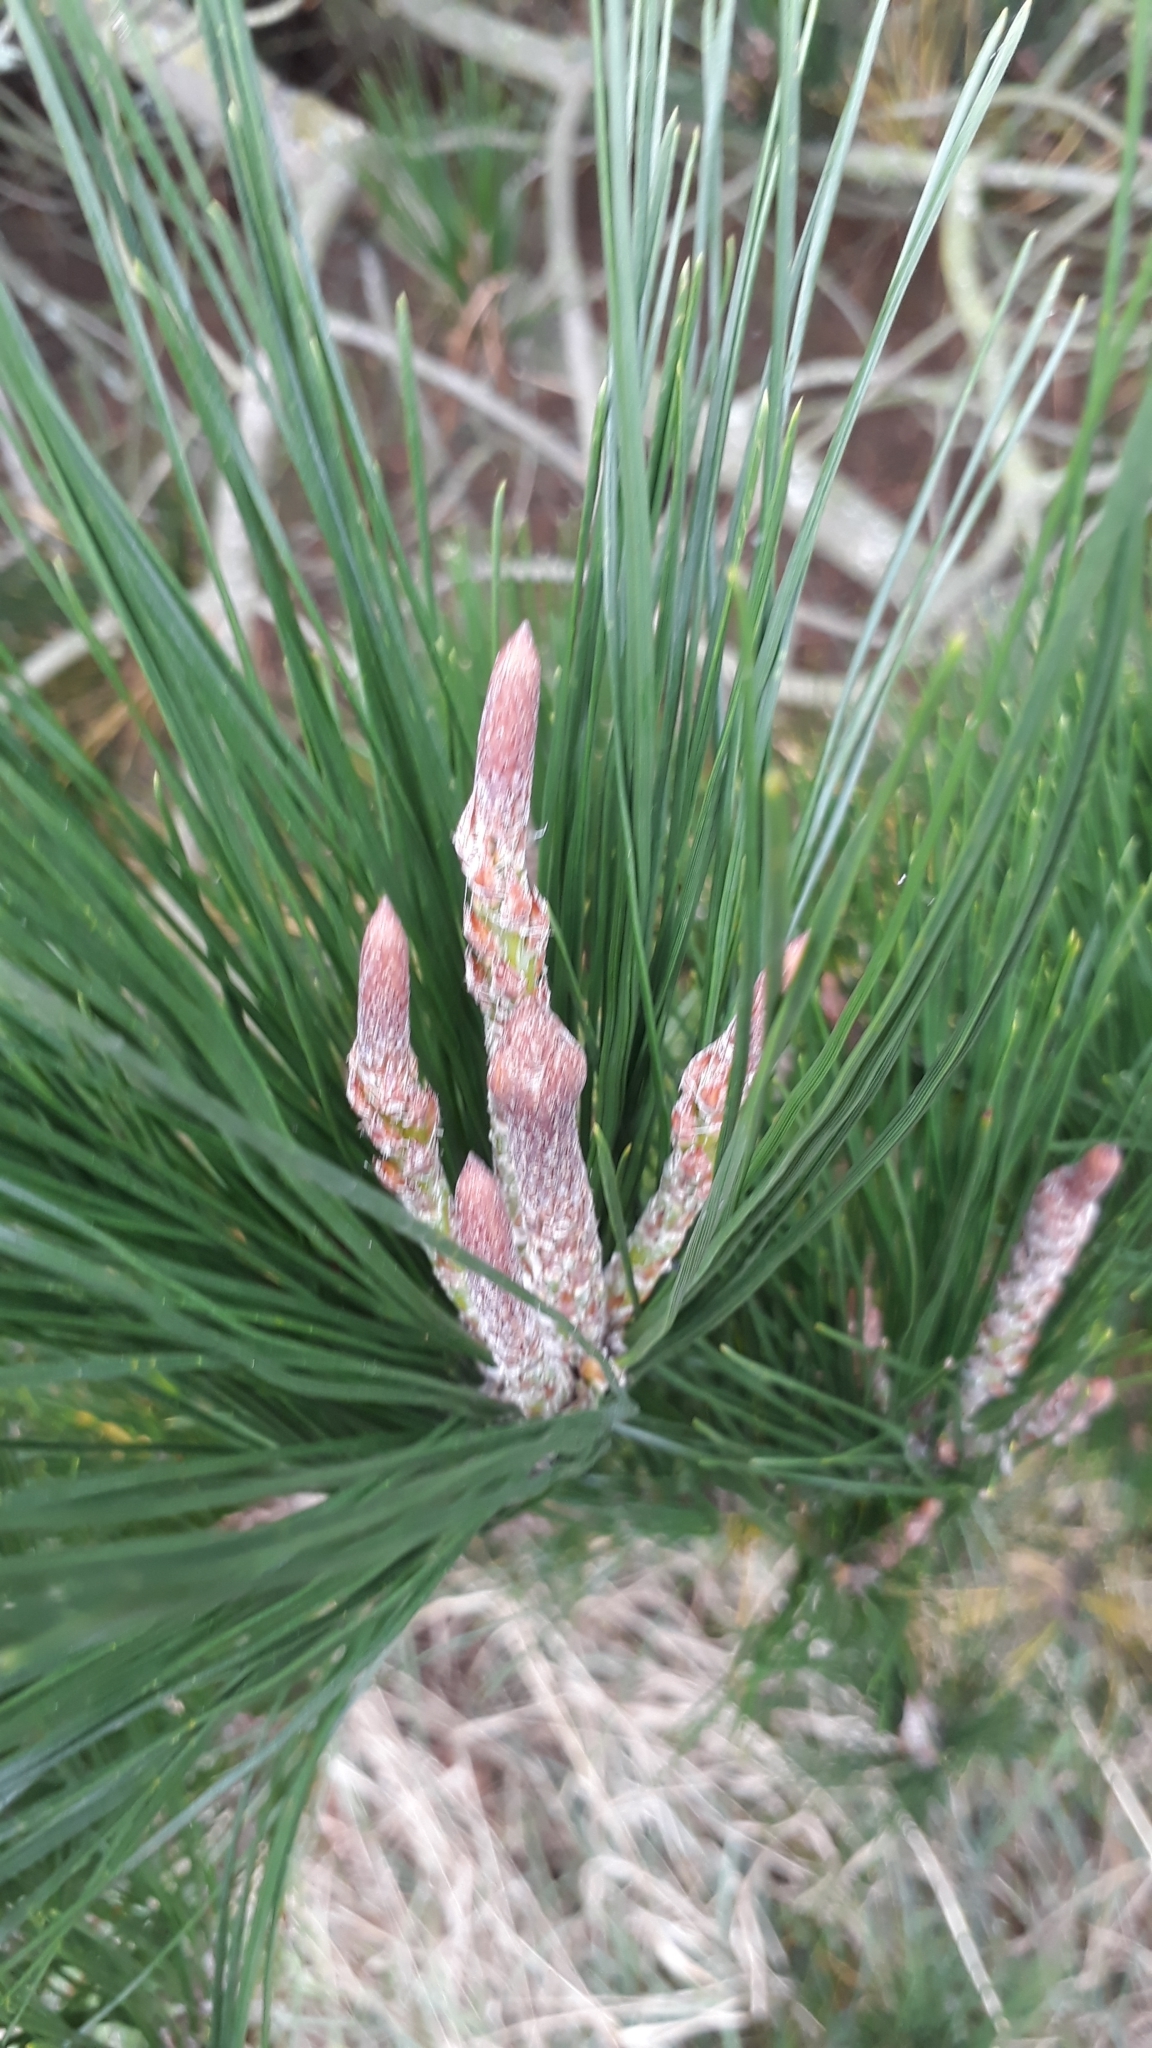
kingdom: Plantae
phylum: Tracheophyta
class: Pinopsida
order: Pinales
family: Pinaceae
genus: Pinus
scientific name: Pinus muricata
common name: Bishop pine
